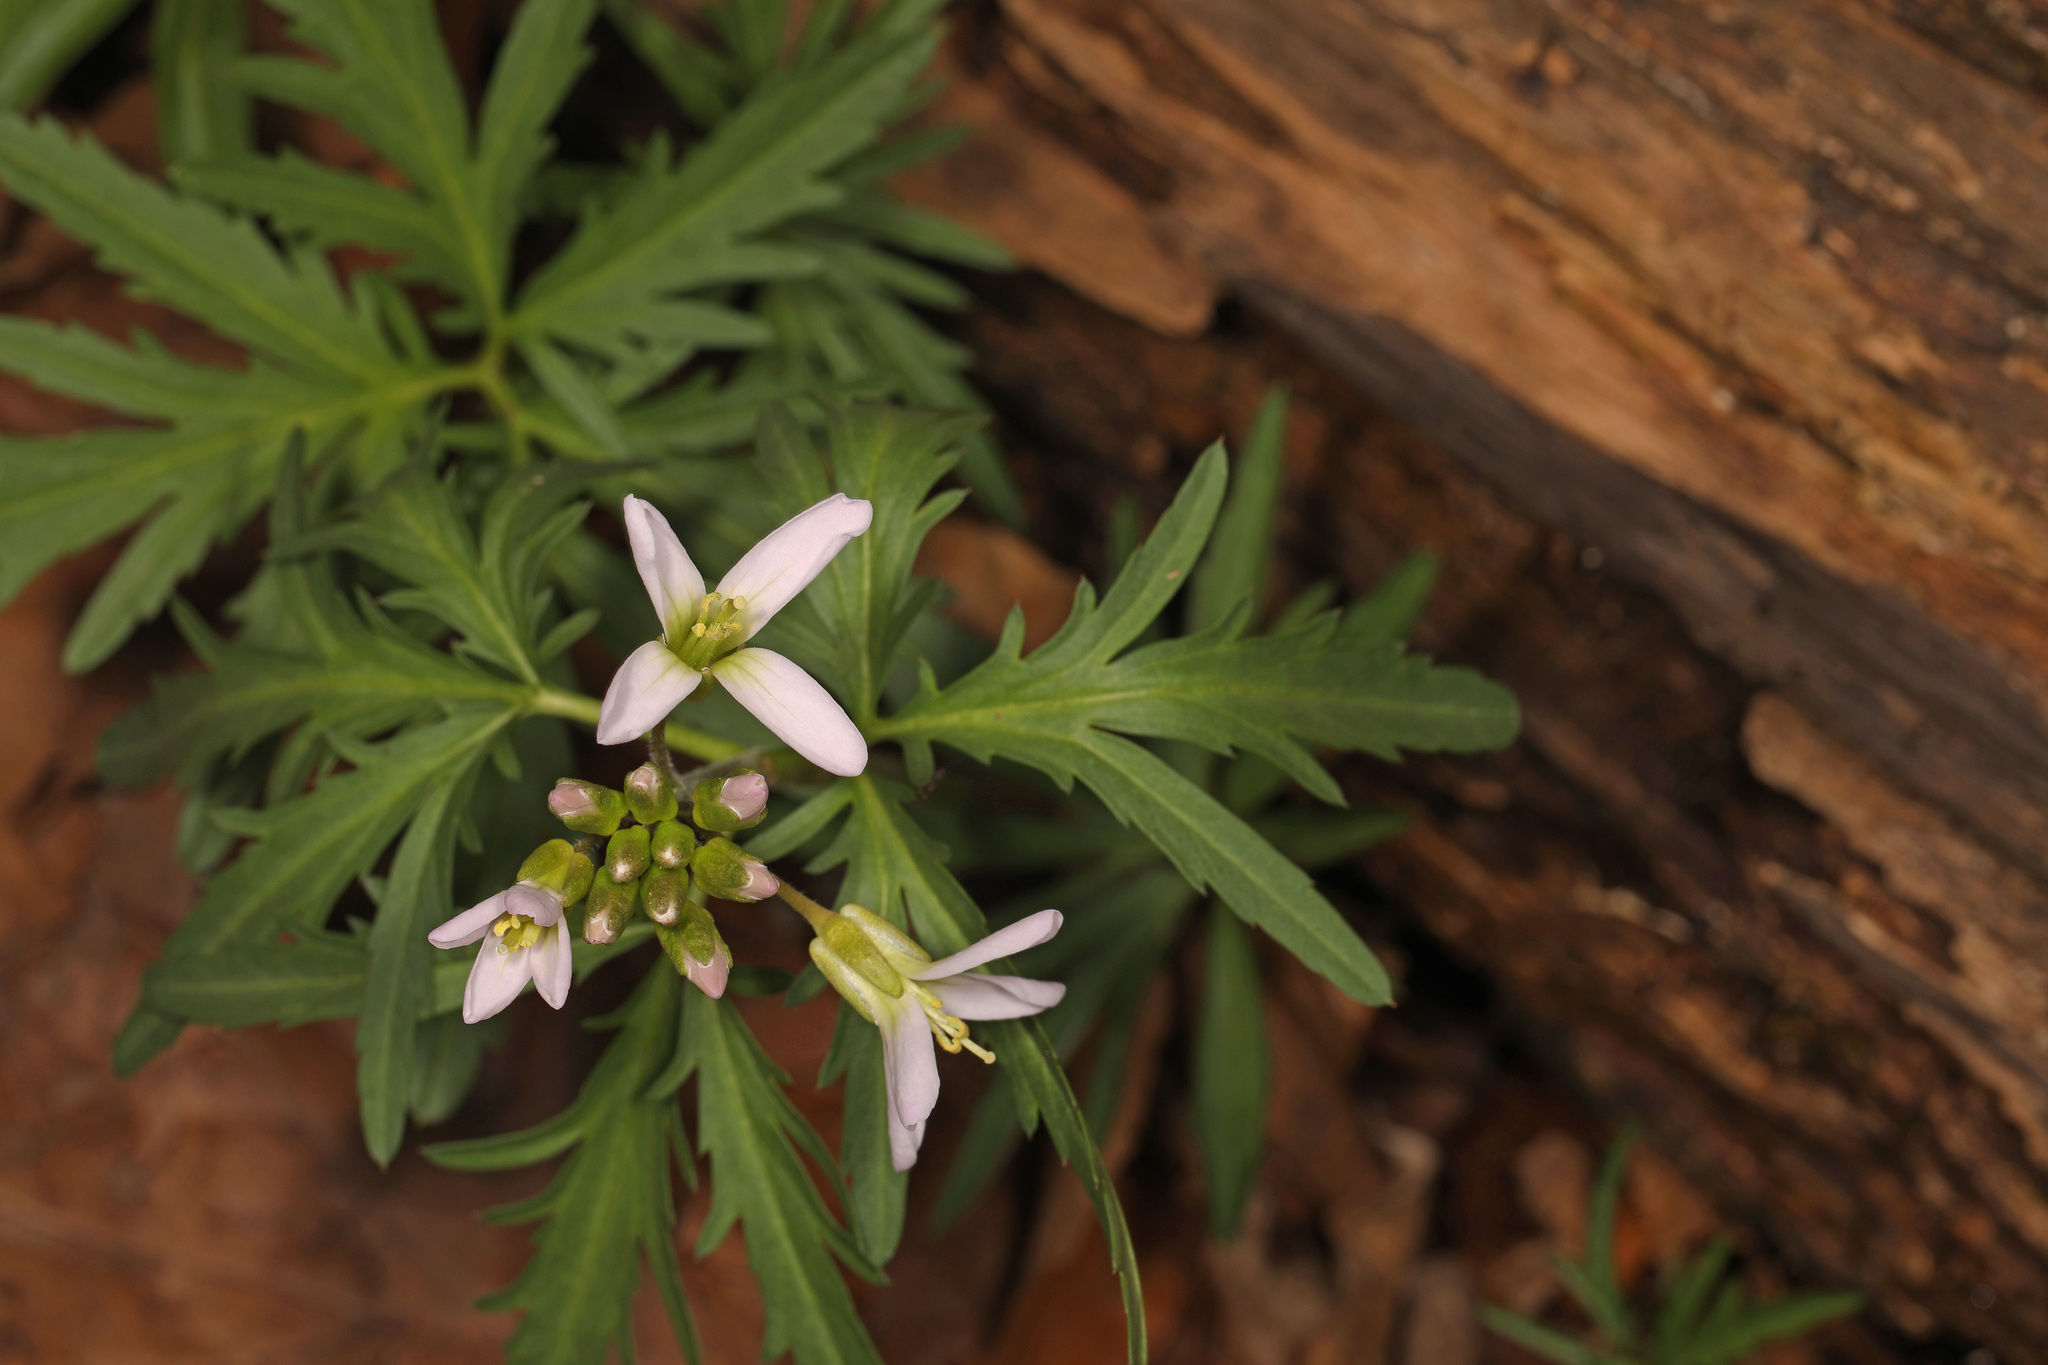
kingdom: Plantae
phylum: Tracheophyta
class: Magnoliopsida
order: Brassicales
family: Brassicaceae
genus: Cardamine
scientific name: Cardamine concatenata
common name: Cut-leaf toothcup
